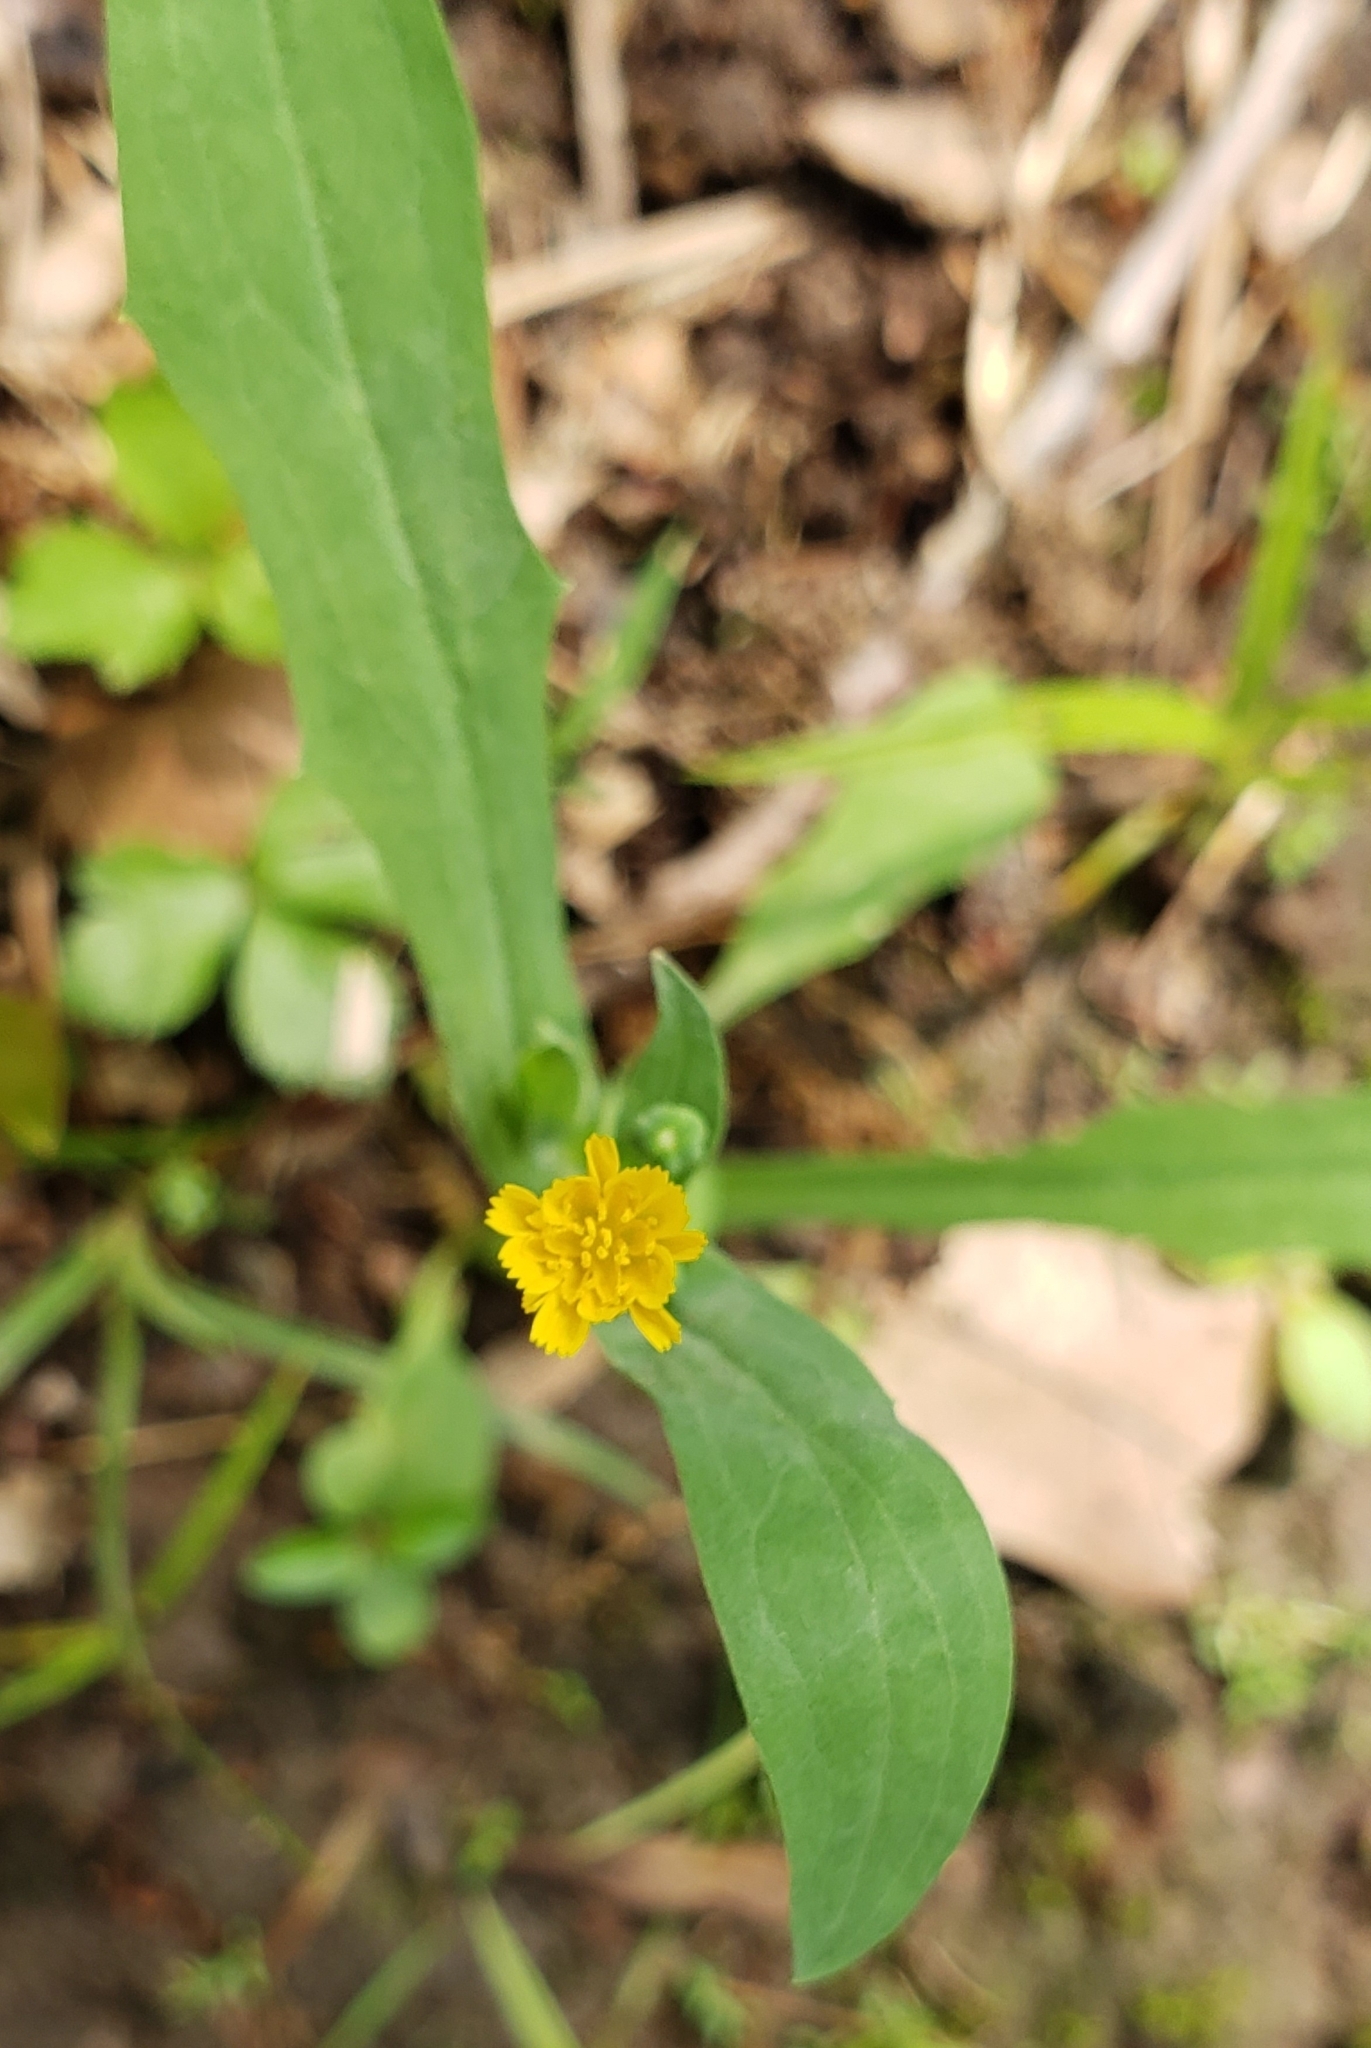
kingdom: Plantae
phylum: Tracheophyta
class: Magnoliopsida
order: Asterales
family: Asteraceae
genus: Krigia
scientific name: Krigia cespitosa
